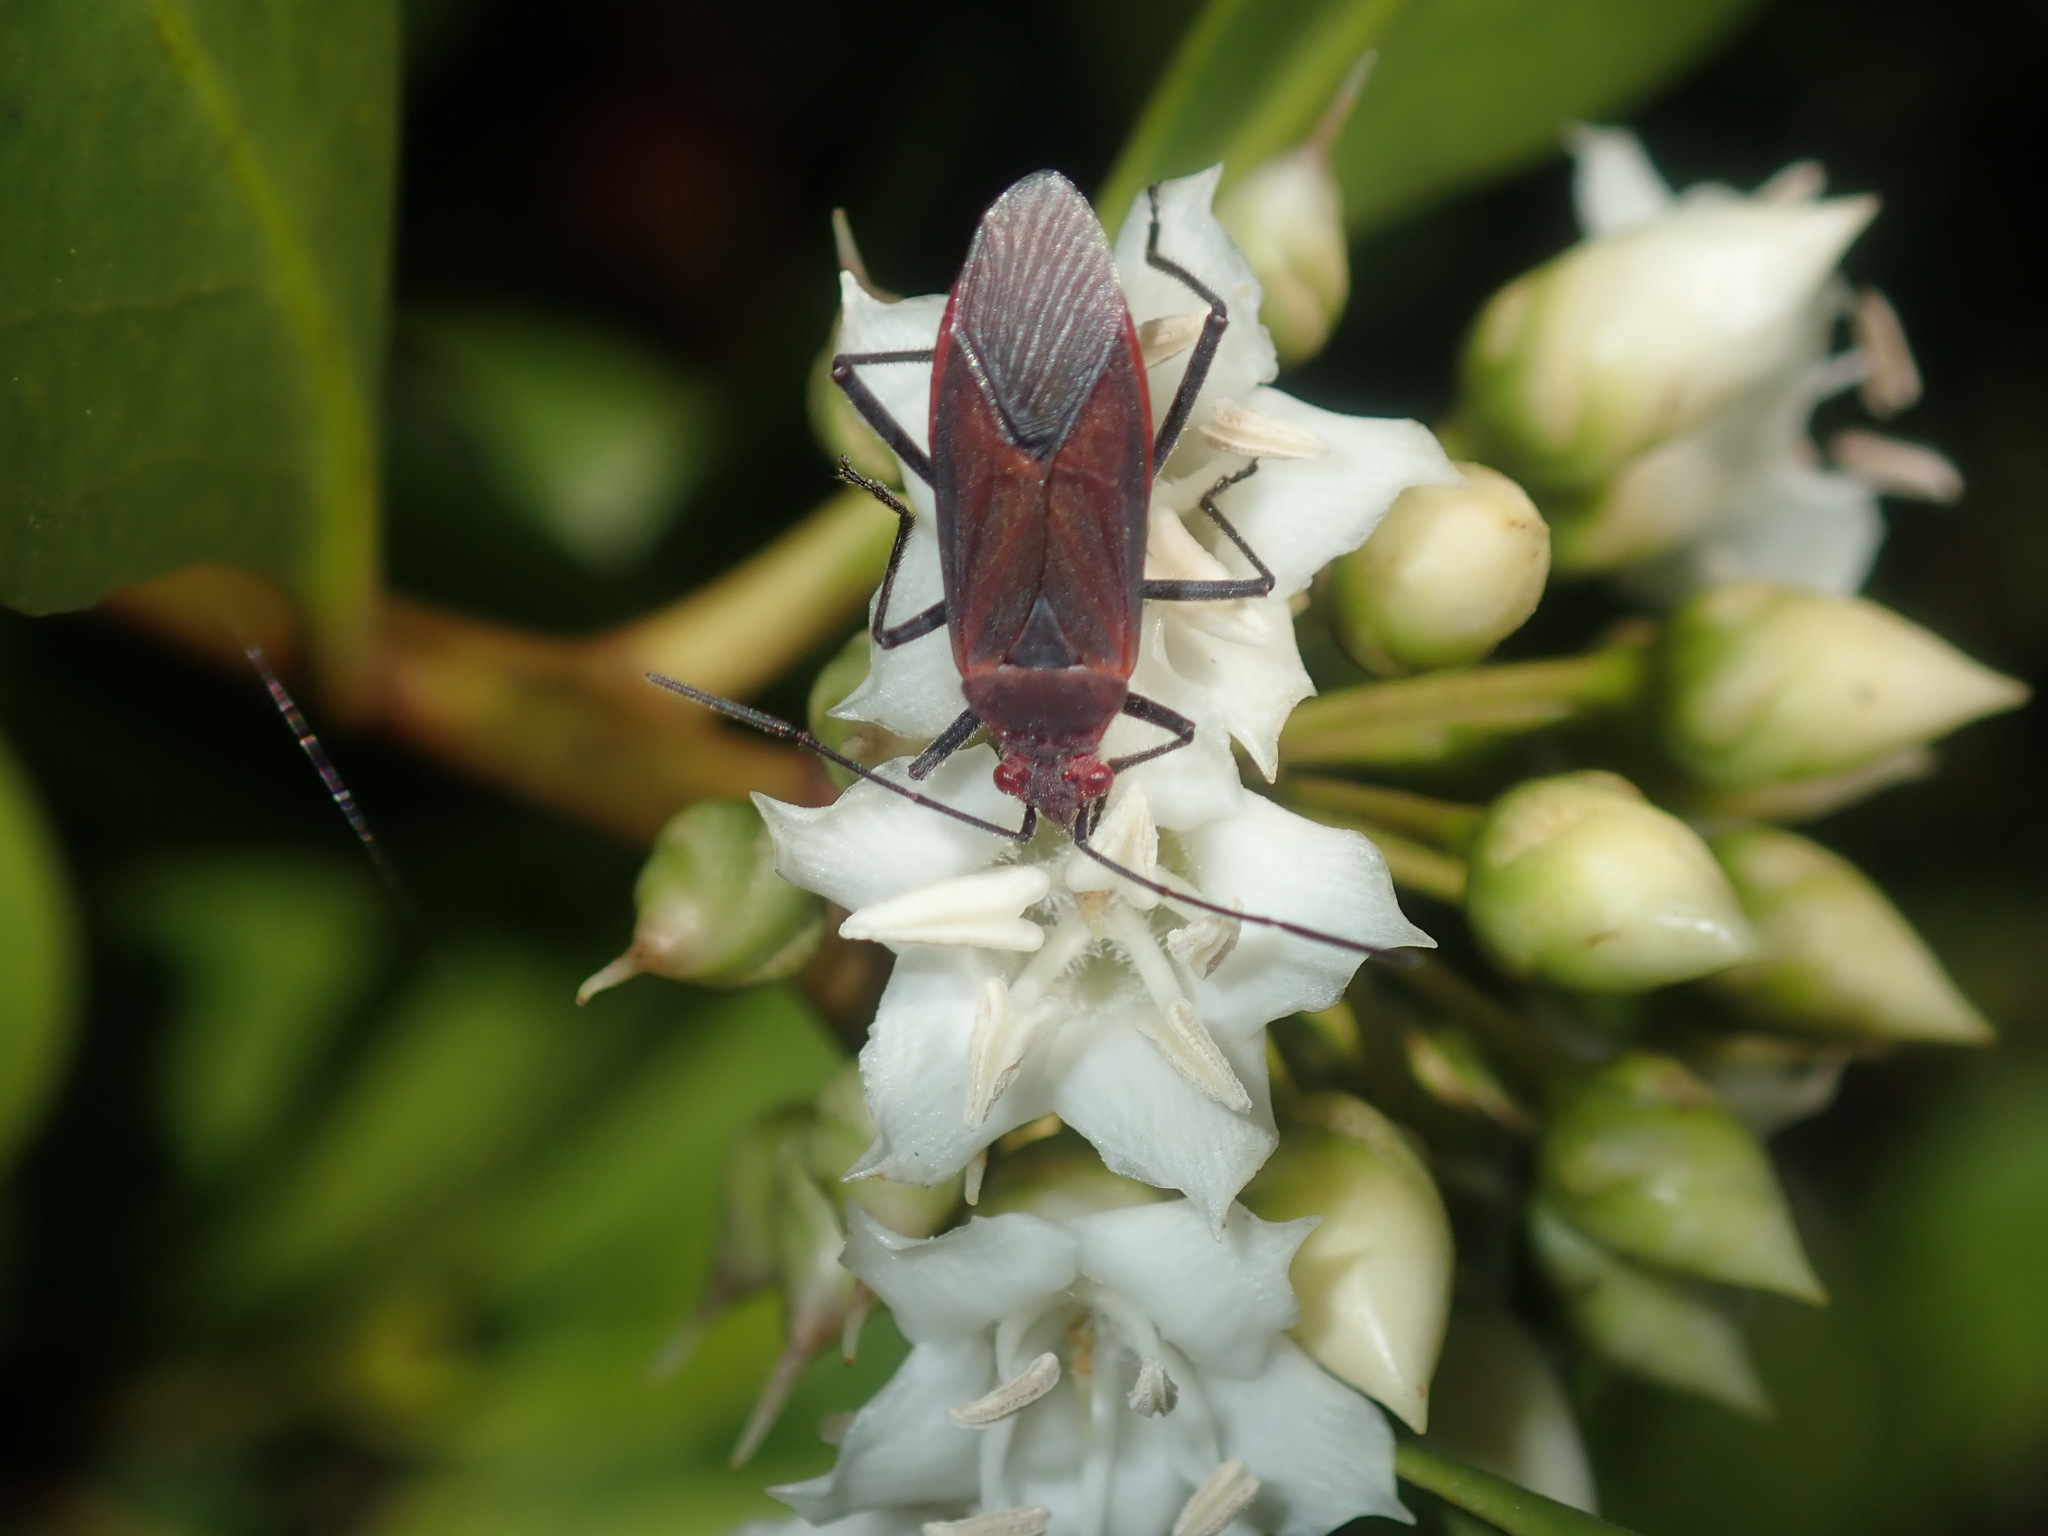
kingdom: Animalia
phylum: Arthropoda
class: Insecta
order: Hemiptera
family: Rhopalidae
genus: Leptocoris
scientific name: Leptocoris tagalicus
